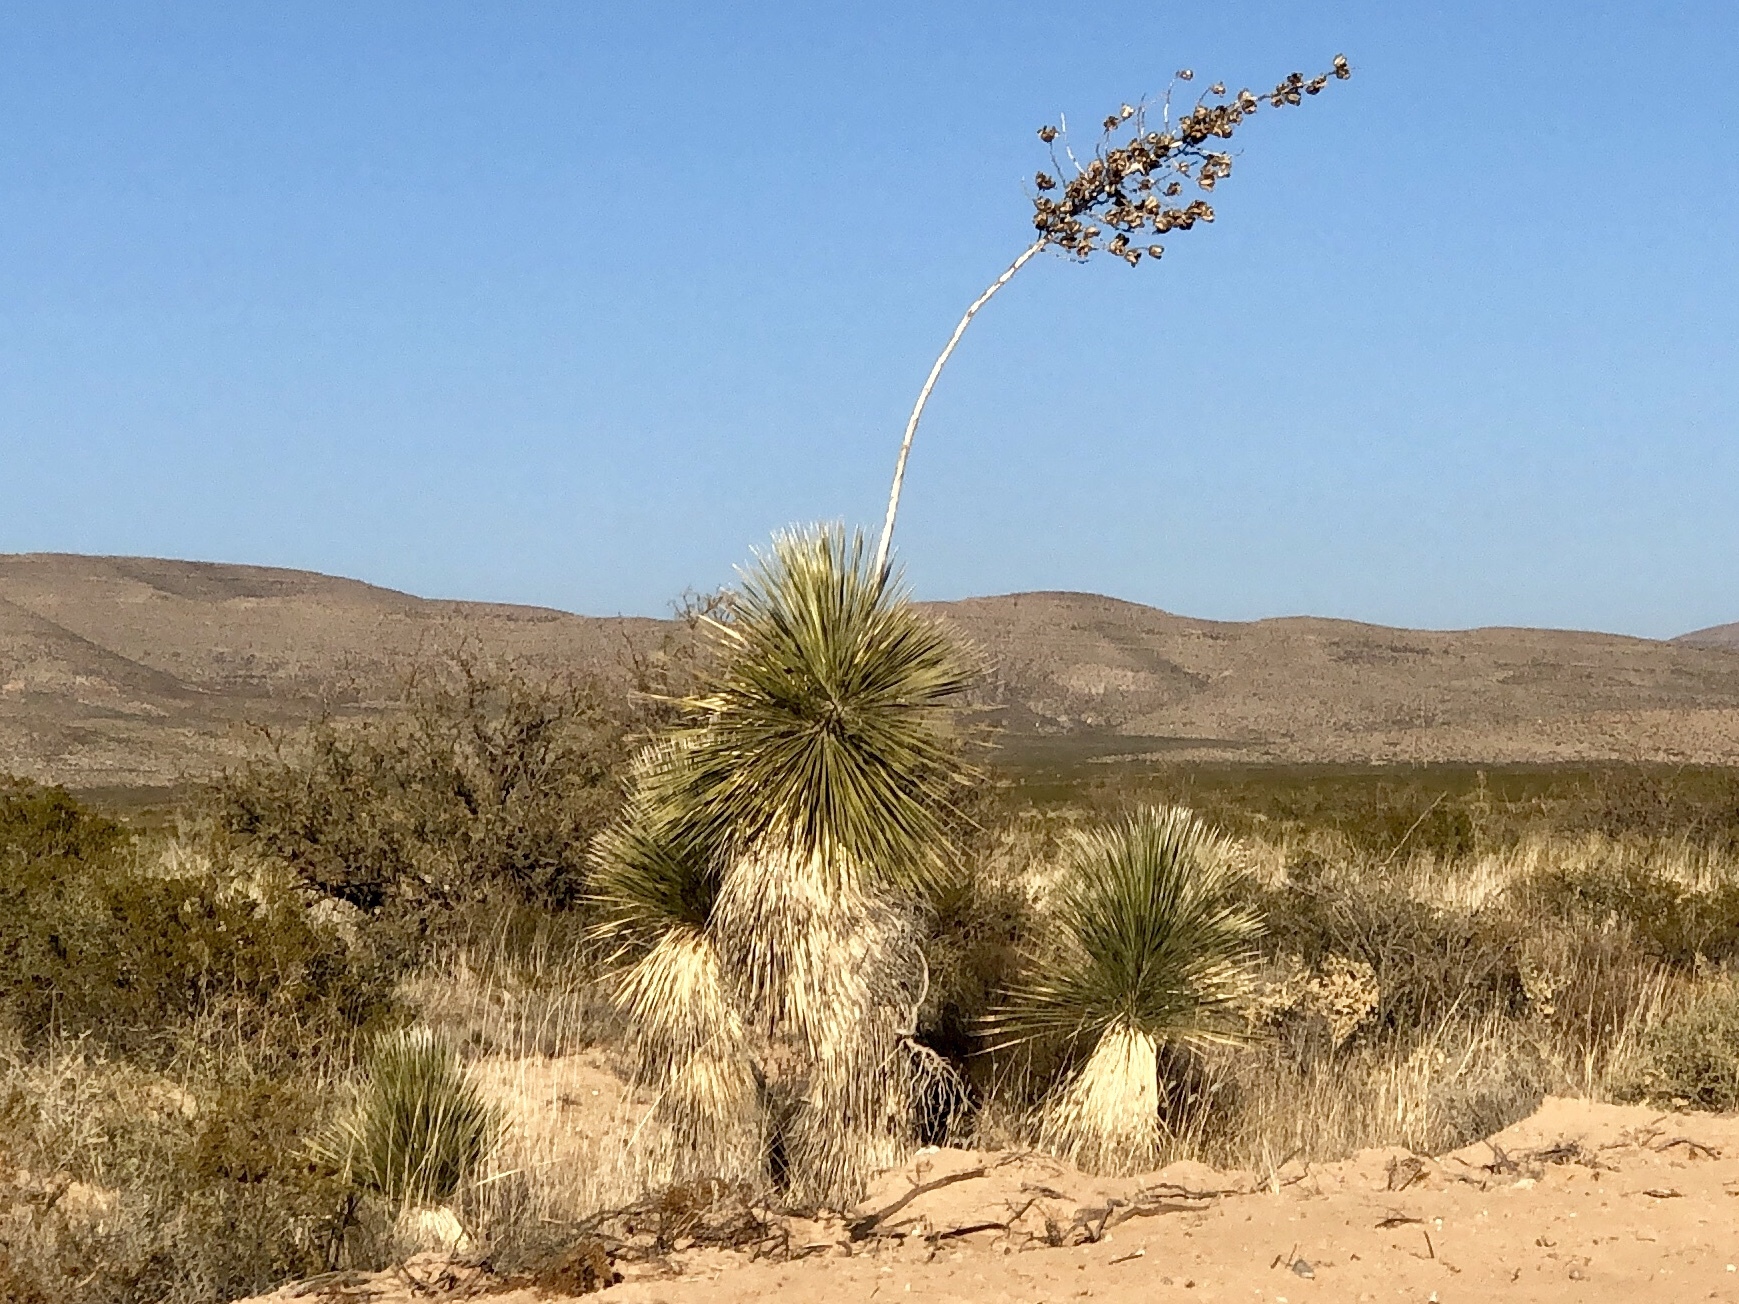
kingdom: Plantae
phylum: Tracheophyta
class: Liliopsida
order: Asparagales
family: Asparagaceae
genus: Yucca
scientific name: Yucca elata
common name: Palmella
